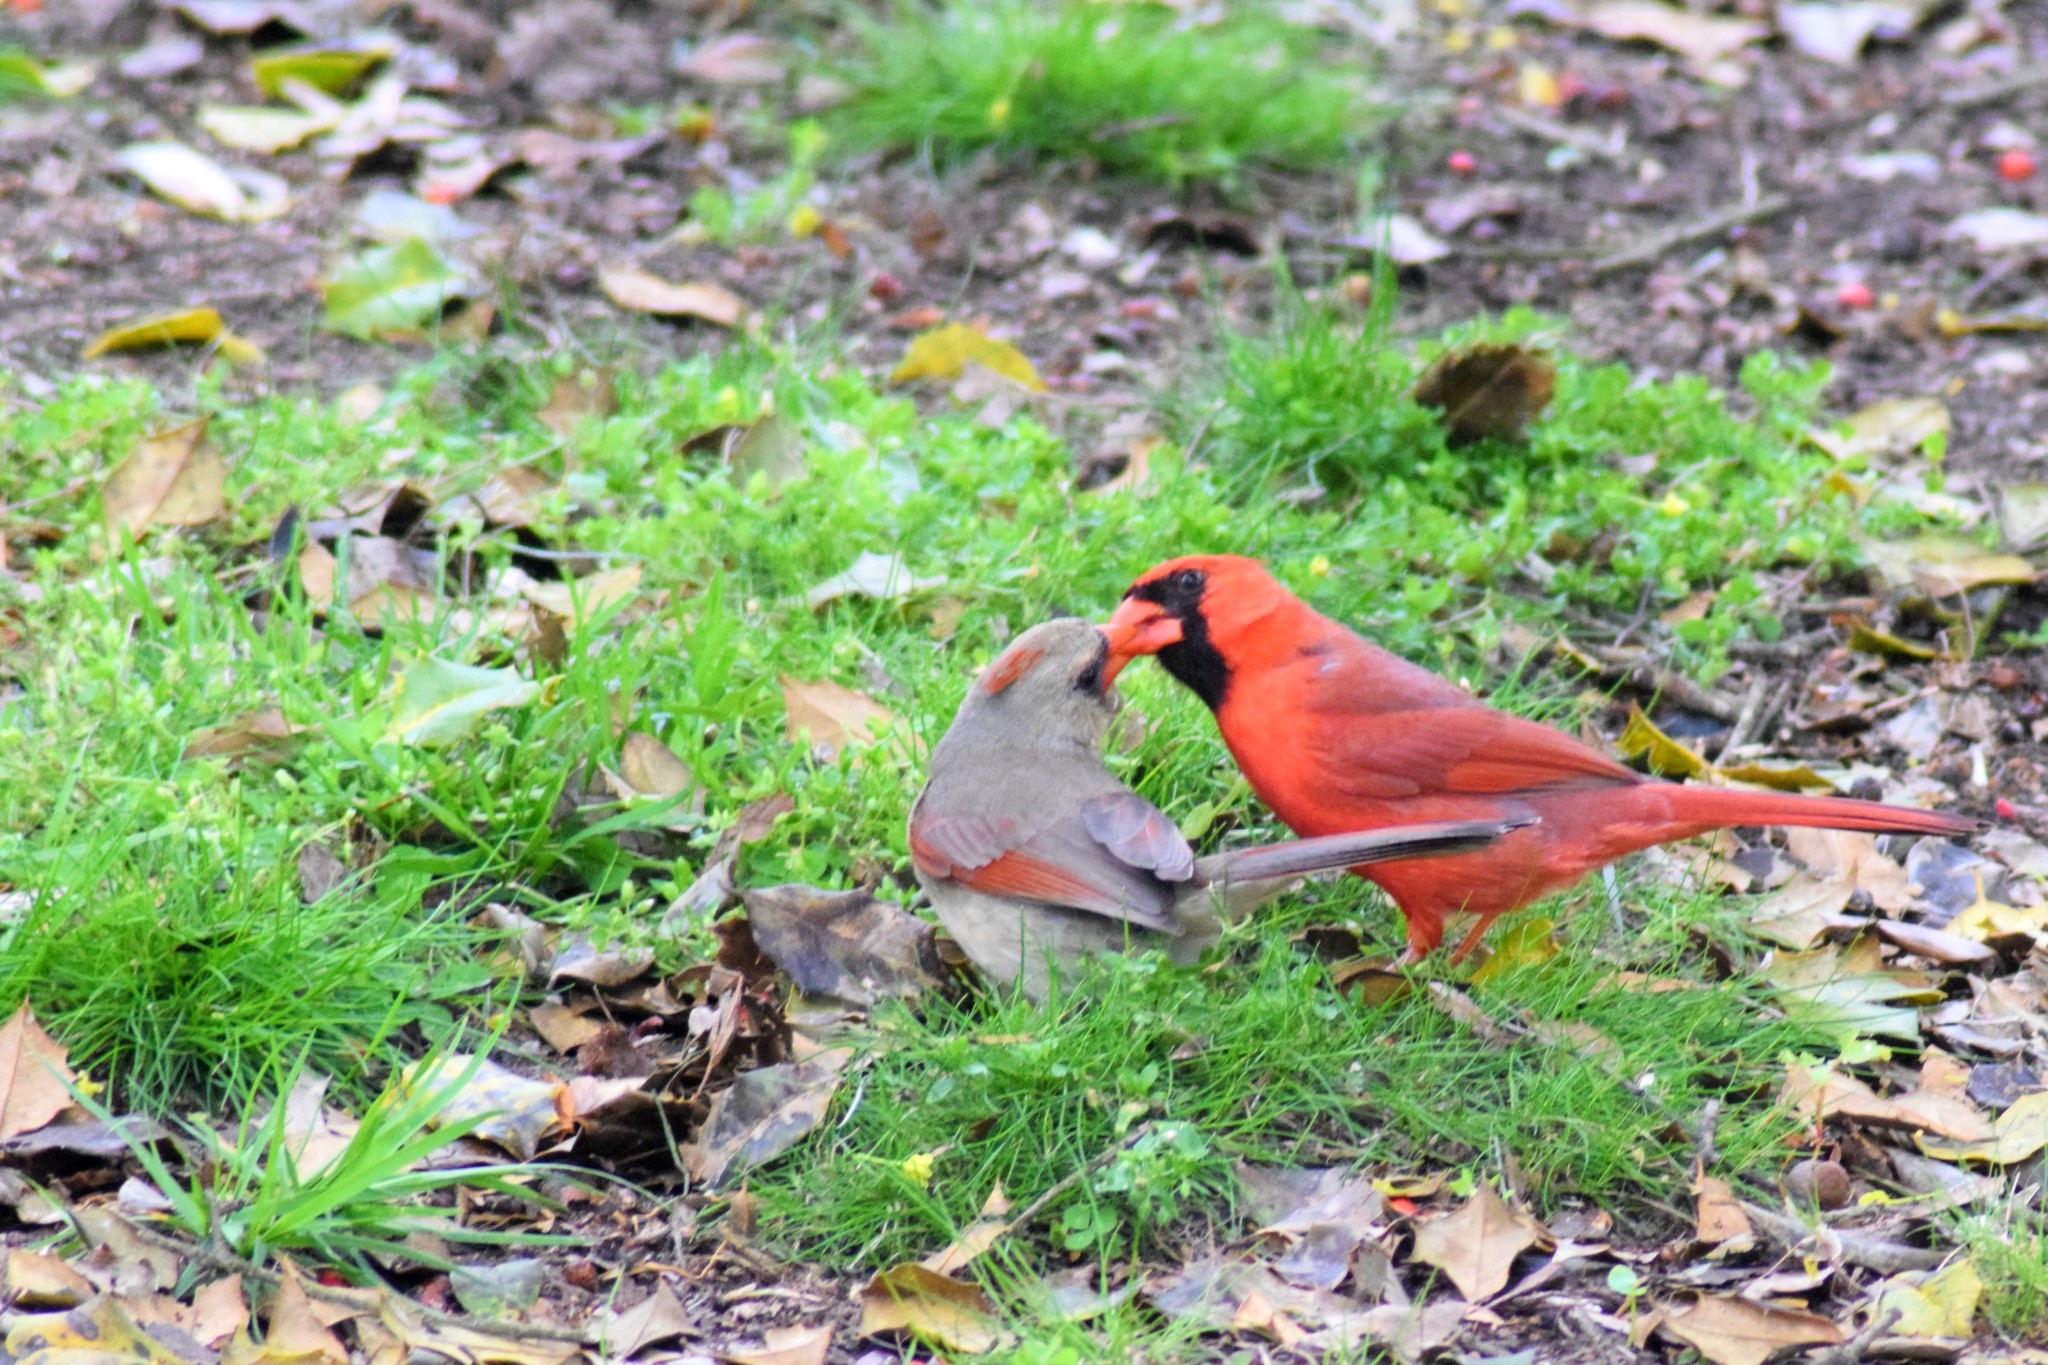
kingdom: Animalia
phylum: Chordata
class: Aves
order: Passeriformes
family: Cardinalidae
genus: Cardinalis
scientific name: Cardinalis cardinalis
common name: Northern cardinal
